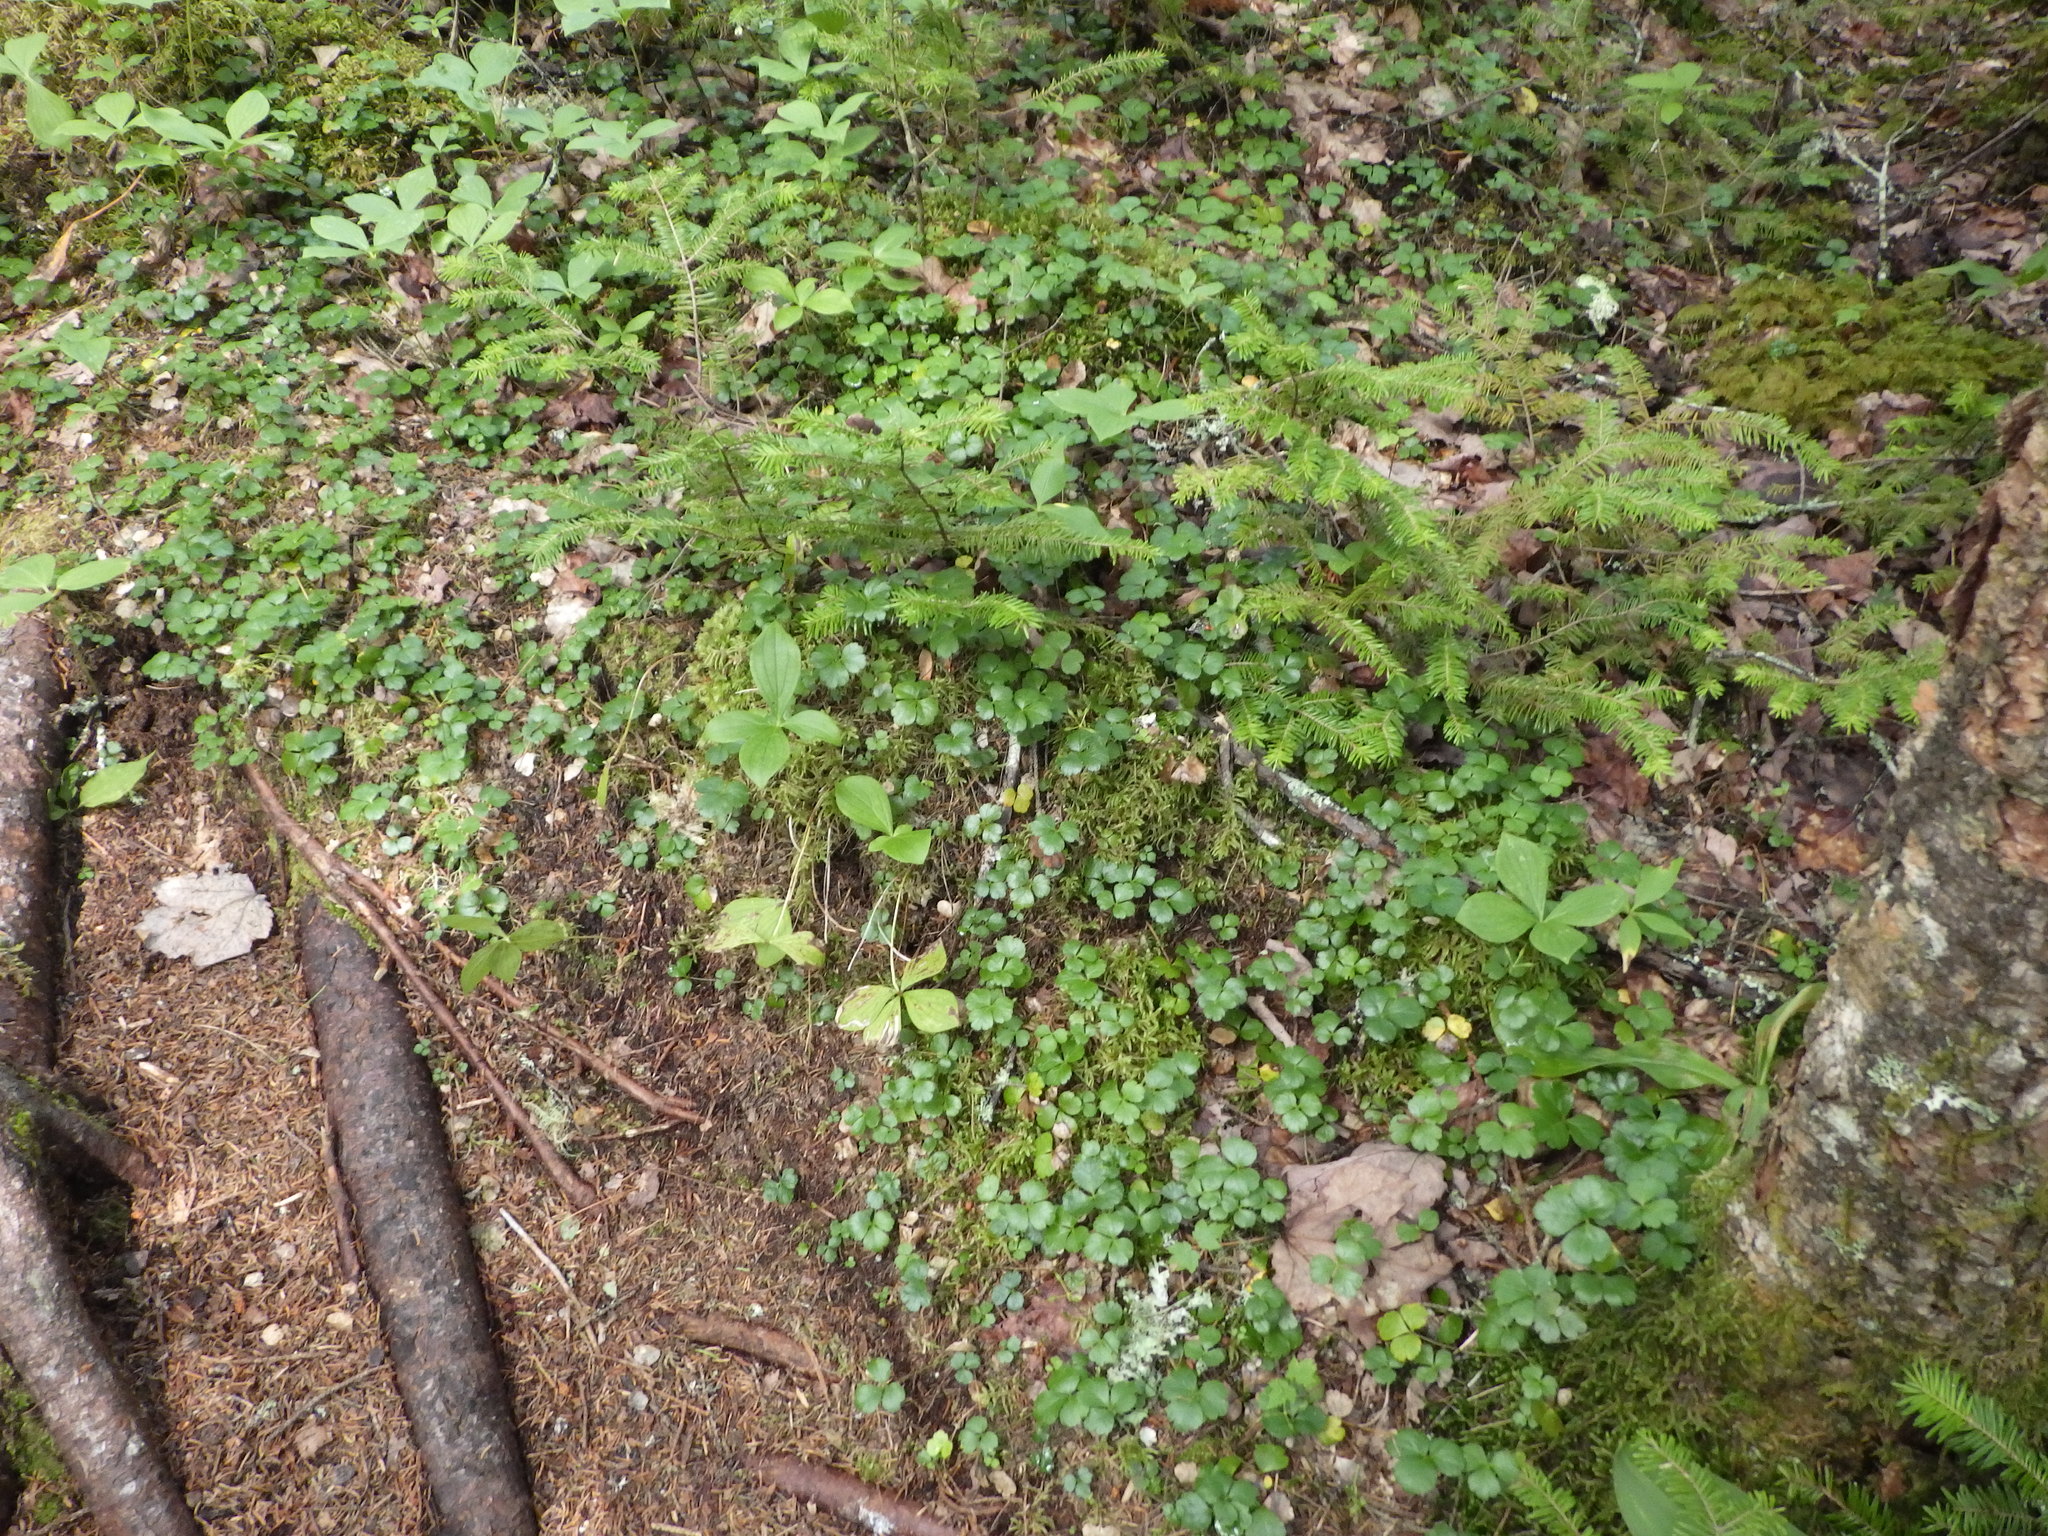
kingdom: Plantae
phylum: Tracheophyta
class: Magnoliopsida
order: Ranunculales
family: Ranunculaceae
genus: Coptis
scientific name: Coptis trifolia
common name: Canker-root
